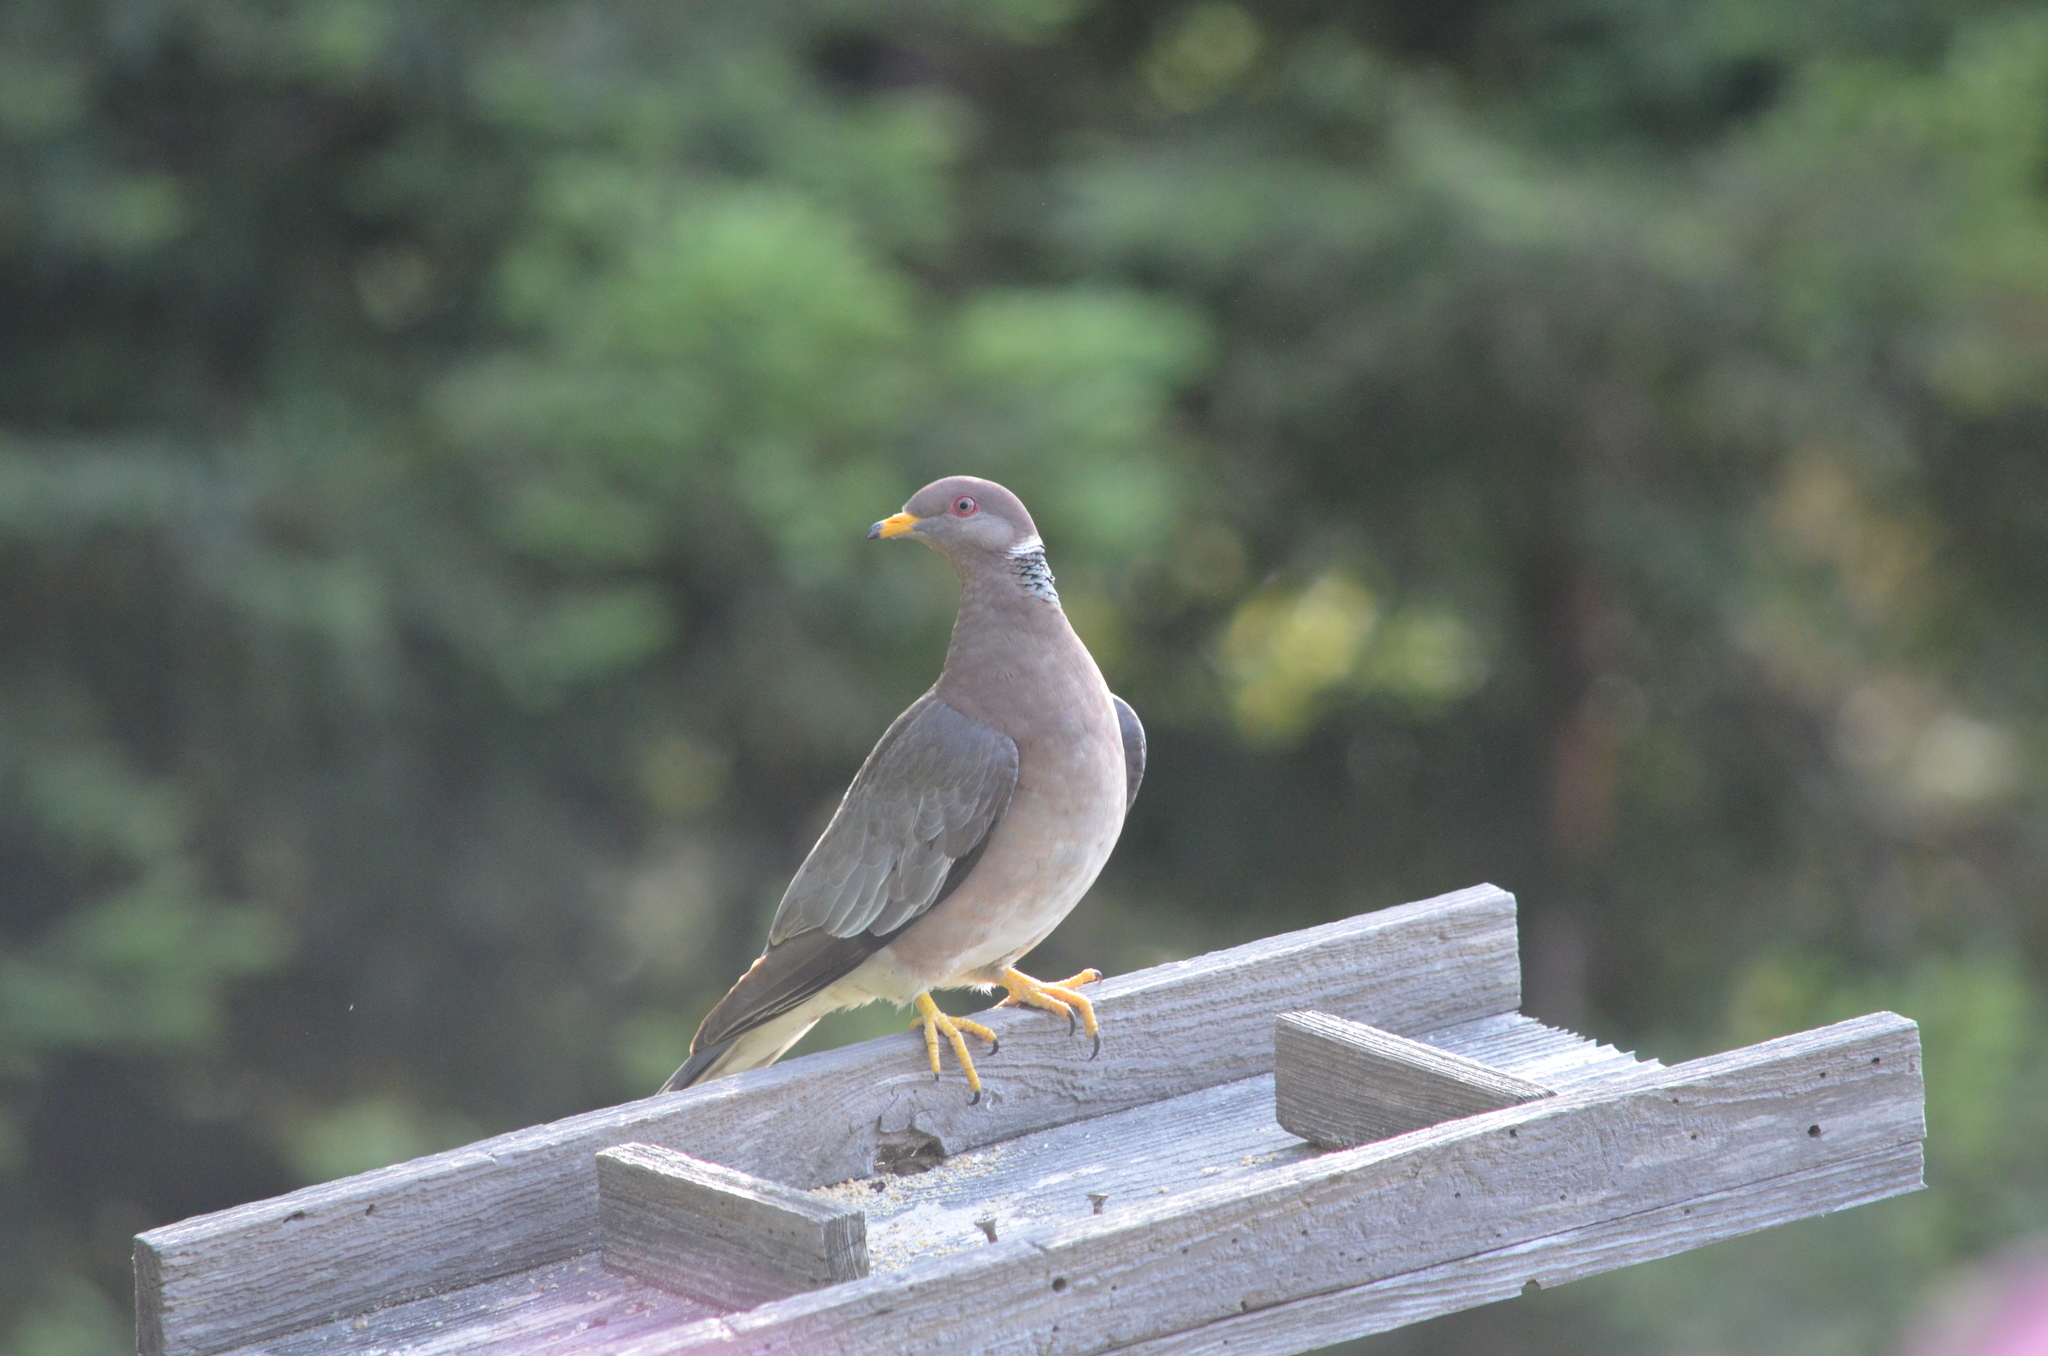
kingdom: Animalia
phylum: Chordata
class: Aves
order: Columbiformes
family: Columbidae
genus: Patagioenas
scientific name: Patagioenas fasciata
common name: Band-tailed pigeon
